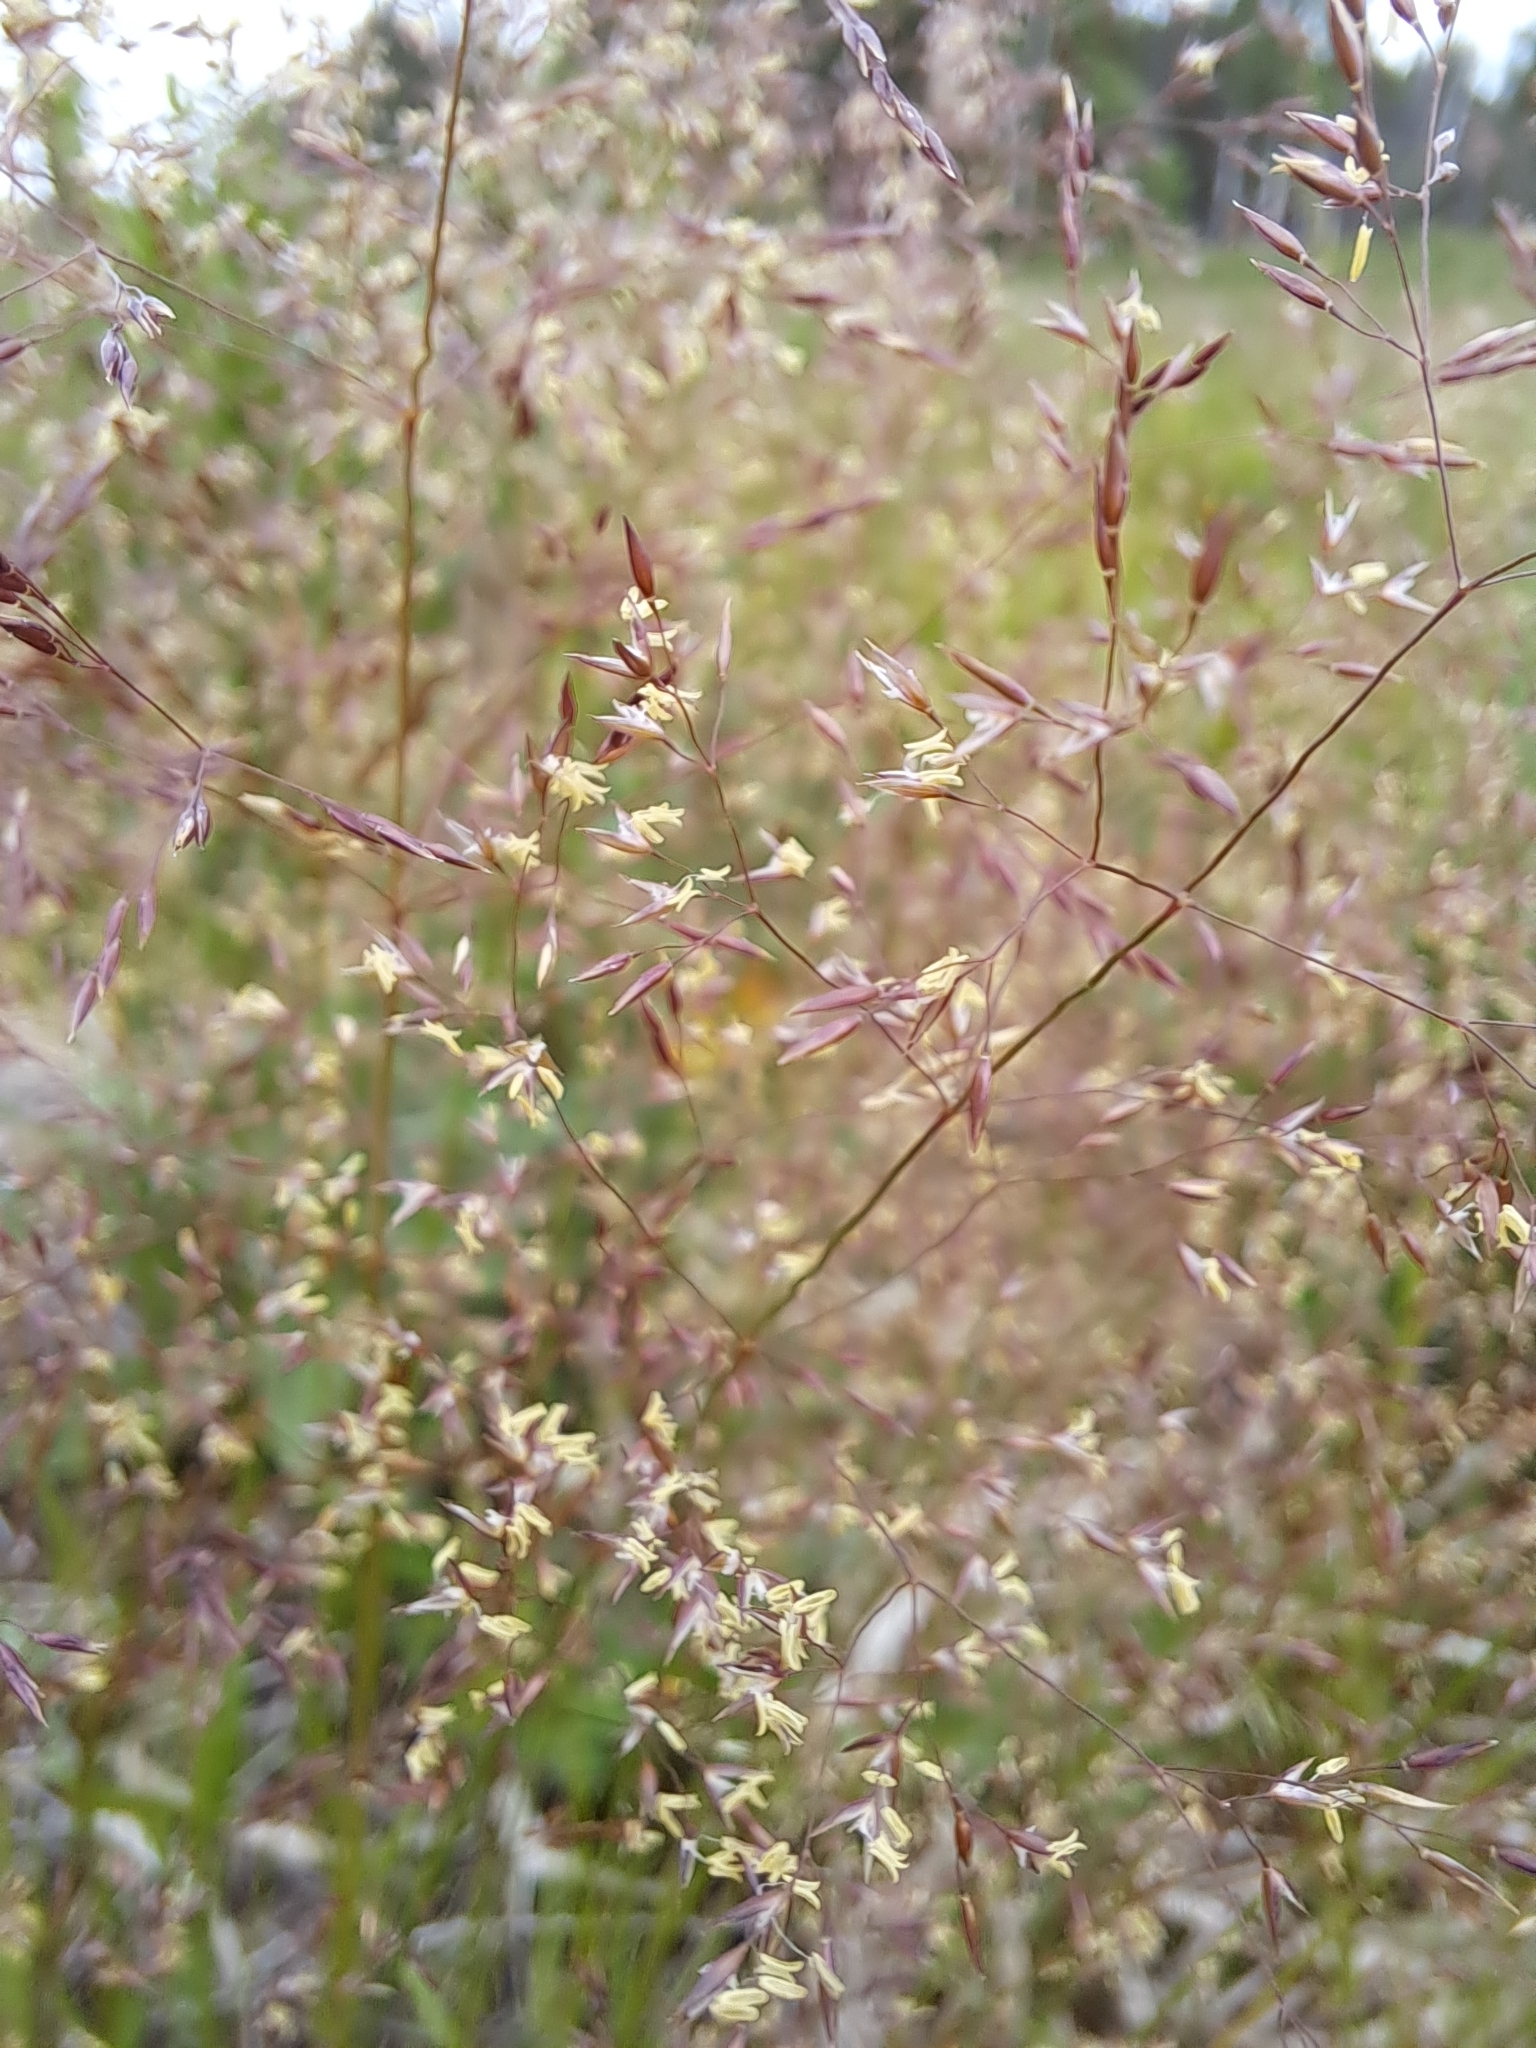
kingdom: Plantae
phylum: Tracheophyta
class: Liliopsida
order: Poales
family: Poaceae
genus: Agrostis
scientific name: Agrostis capillaris
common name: Colonial bentgrass
